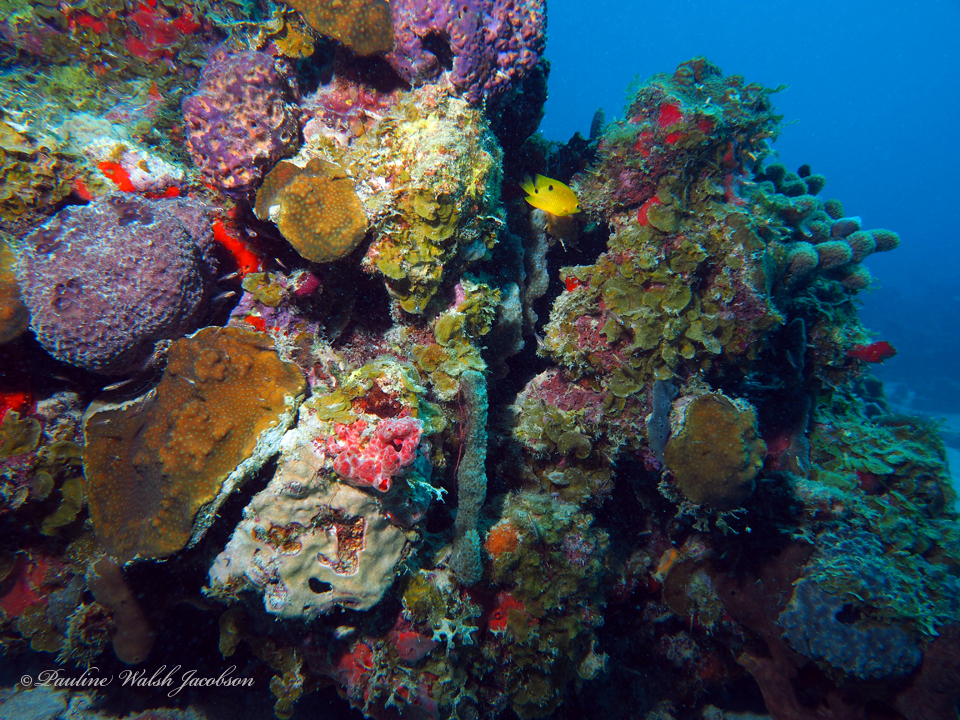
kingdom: Animalia
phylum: Chordata
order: Perciformes
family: Pomacentridae
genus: Stegastes
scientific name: Stegastes planifrons
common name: Threespot damselfish
